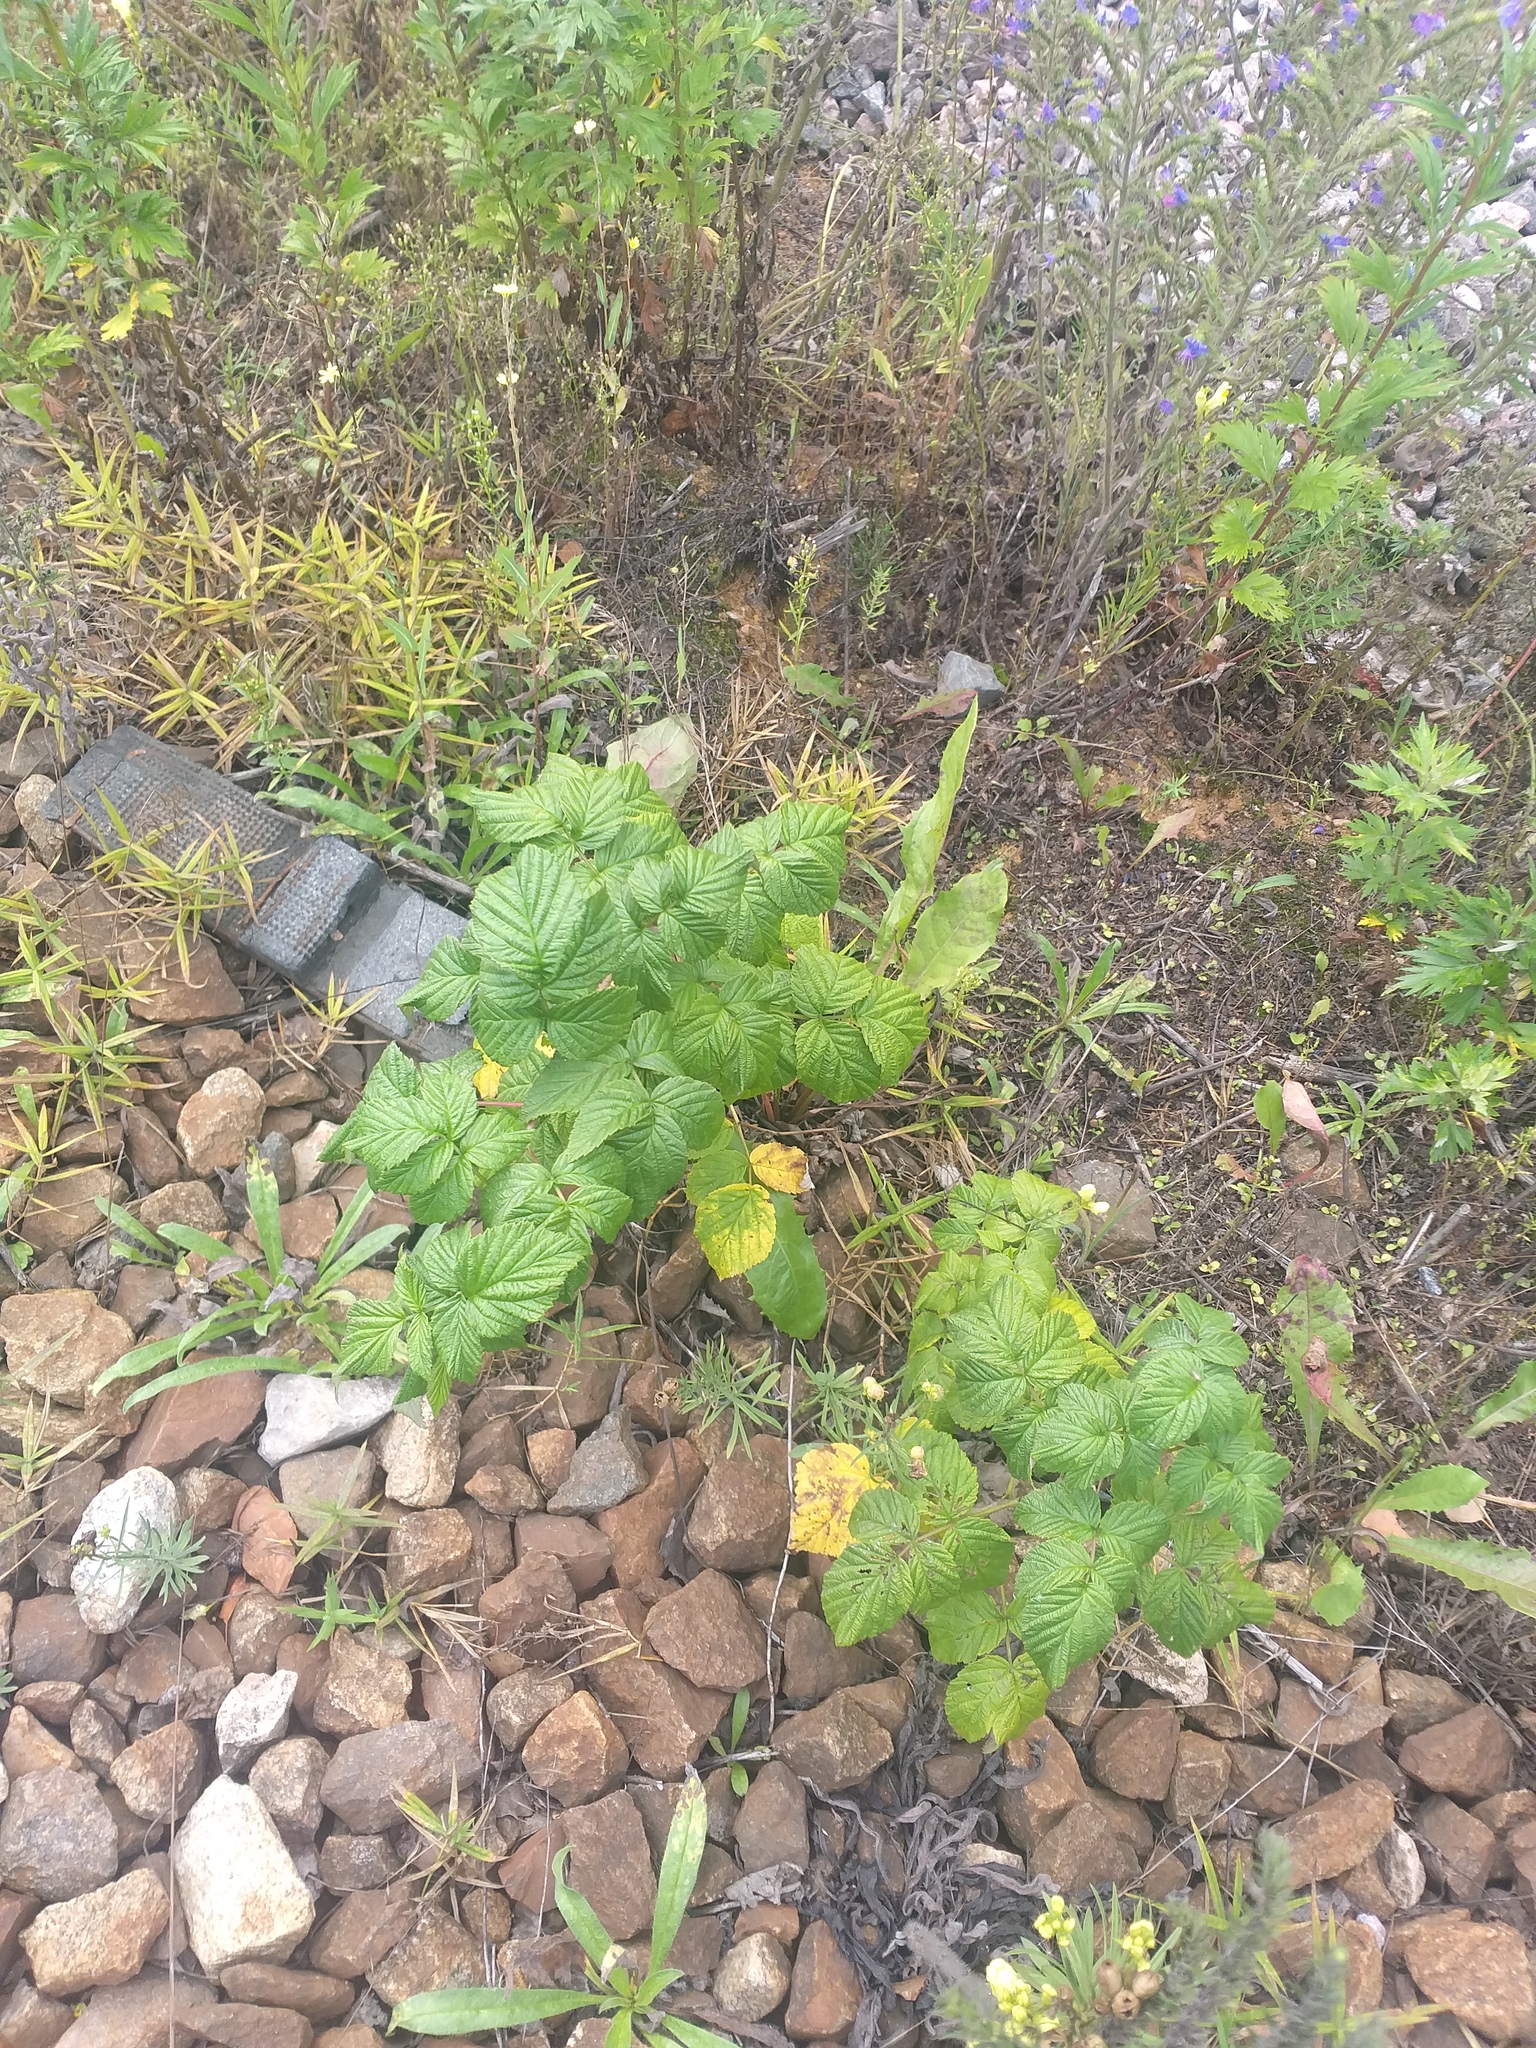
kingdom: Plantae
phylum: Tracheophyta
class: Magnoliopsida
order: Rosales
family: Rosaceae
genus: Rubus
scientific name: Rubus idaeus
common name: Raspberry
